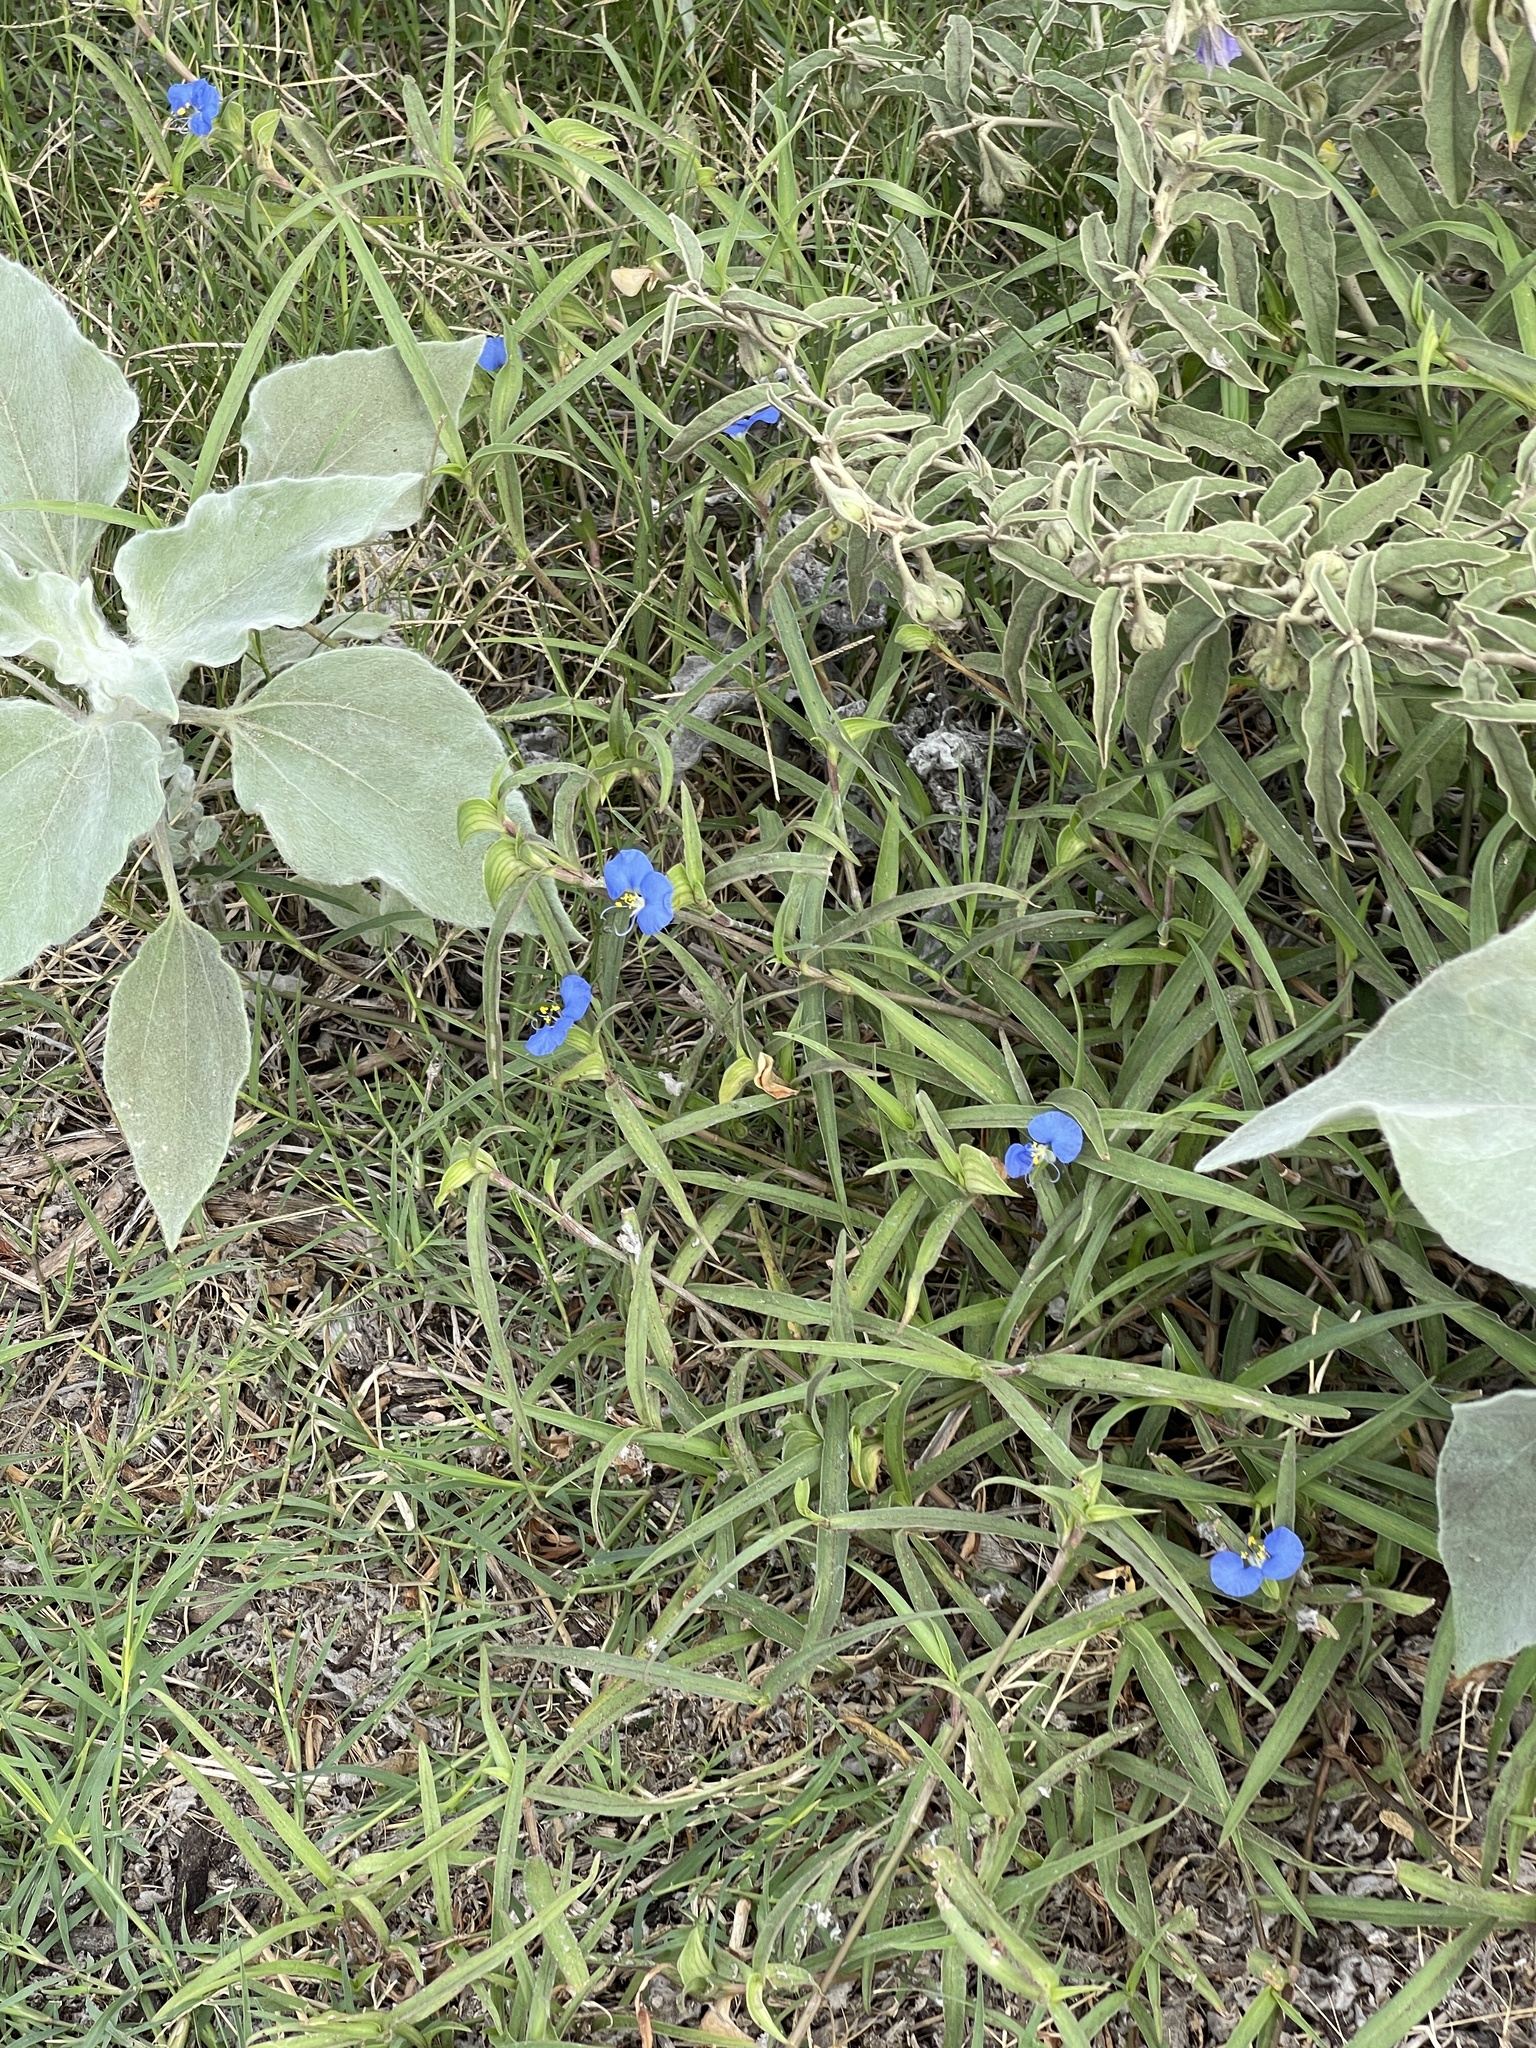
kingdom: Plantae
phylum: Tracheophyta
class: Liliopsida
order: Commelinales
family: Commelinaceae
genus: Commelina
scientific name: Commelina erecta
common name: Blousel blommetjie
